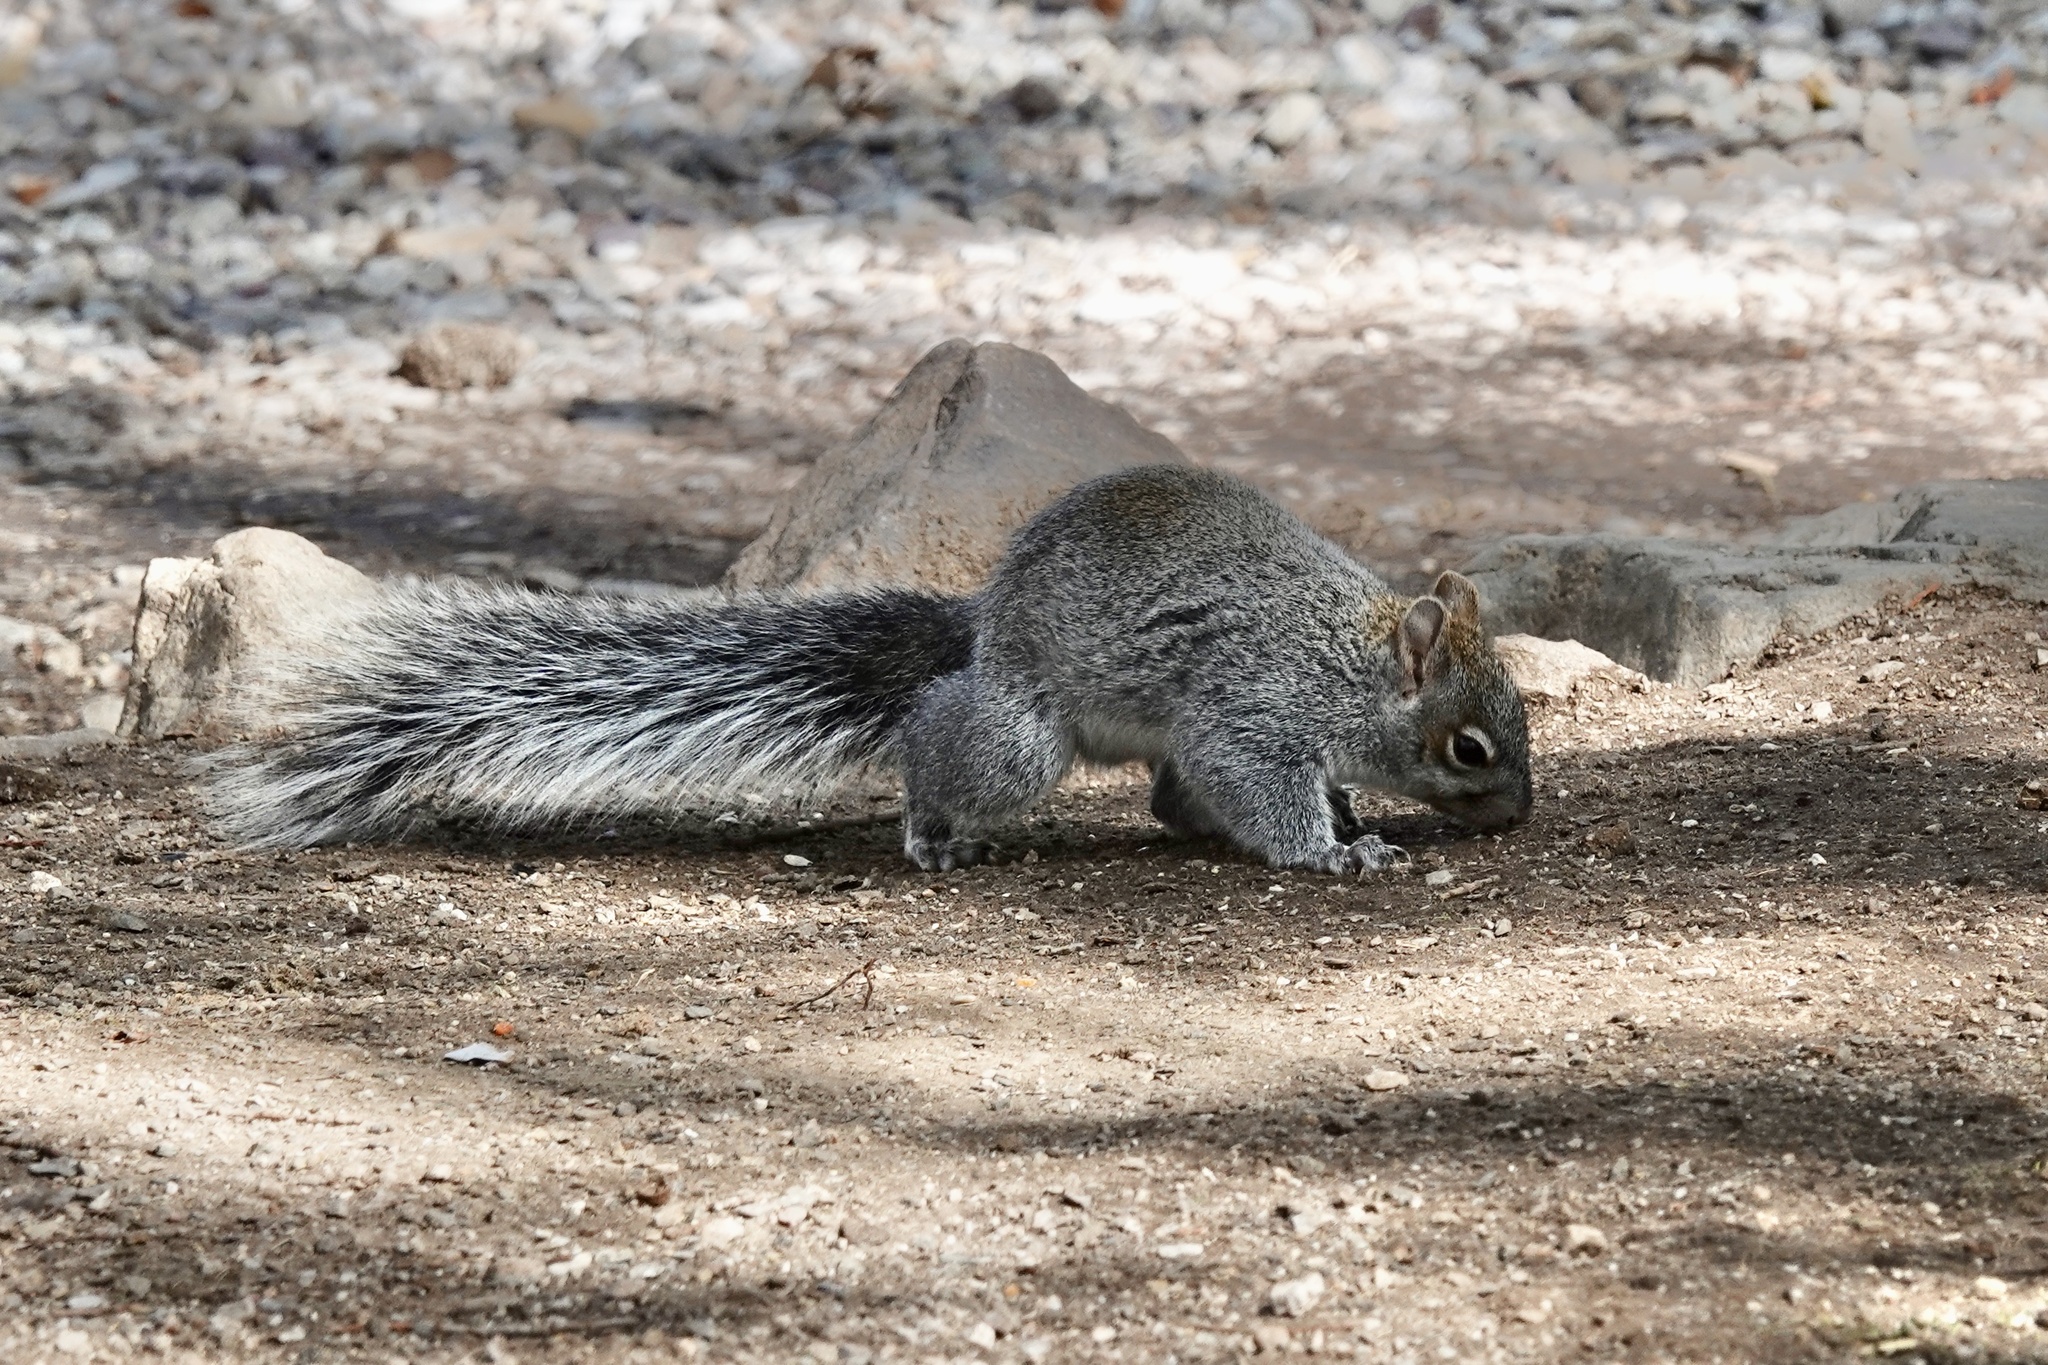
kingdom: Animalia
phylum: Chordata
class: Mammalia
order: Rodentia
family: Sciuridae
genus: Sciurus
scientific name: Sciurus arizonensis
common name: Arizona gray squirrel
